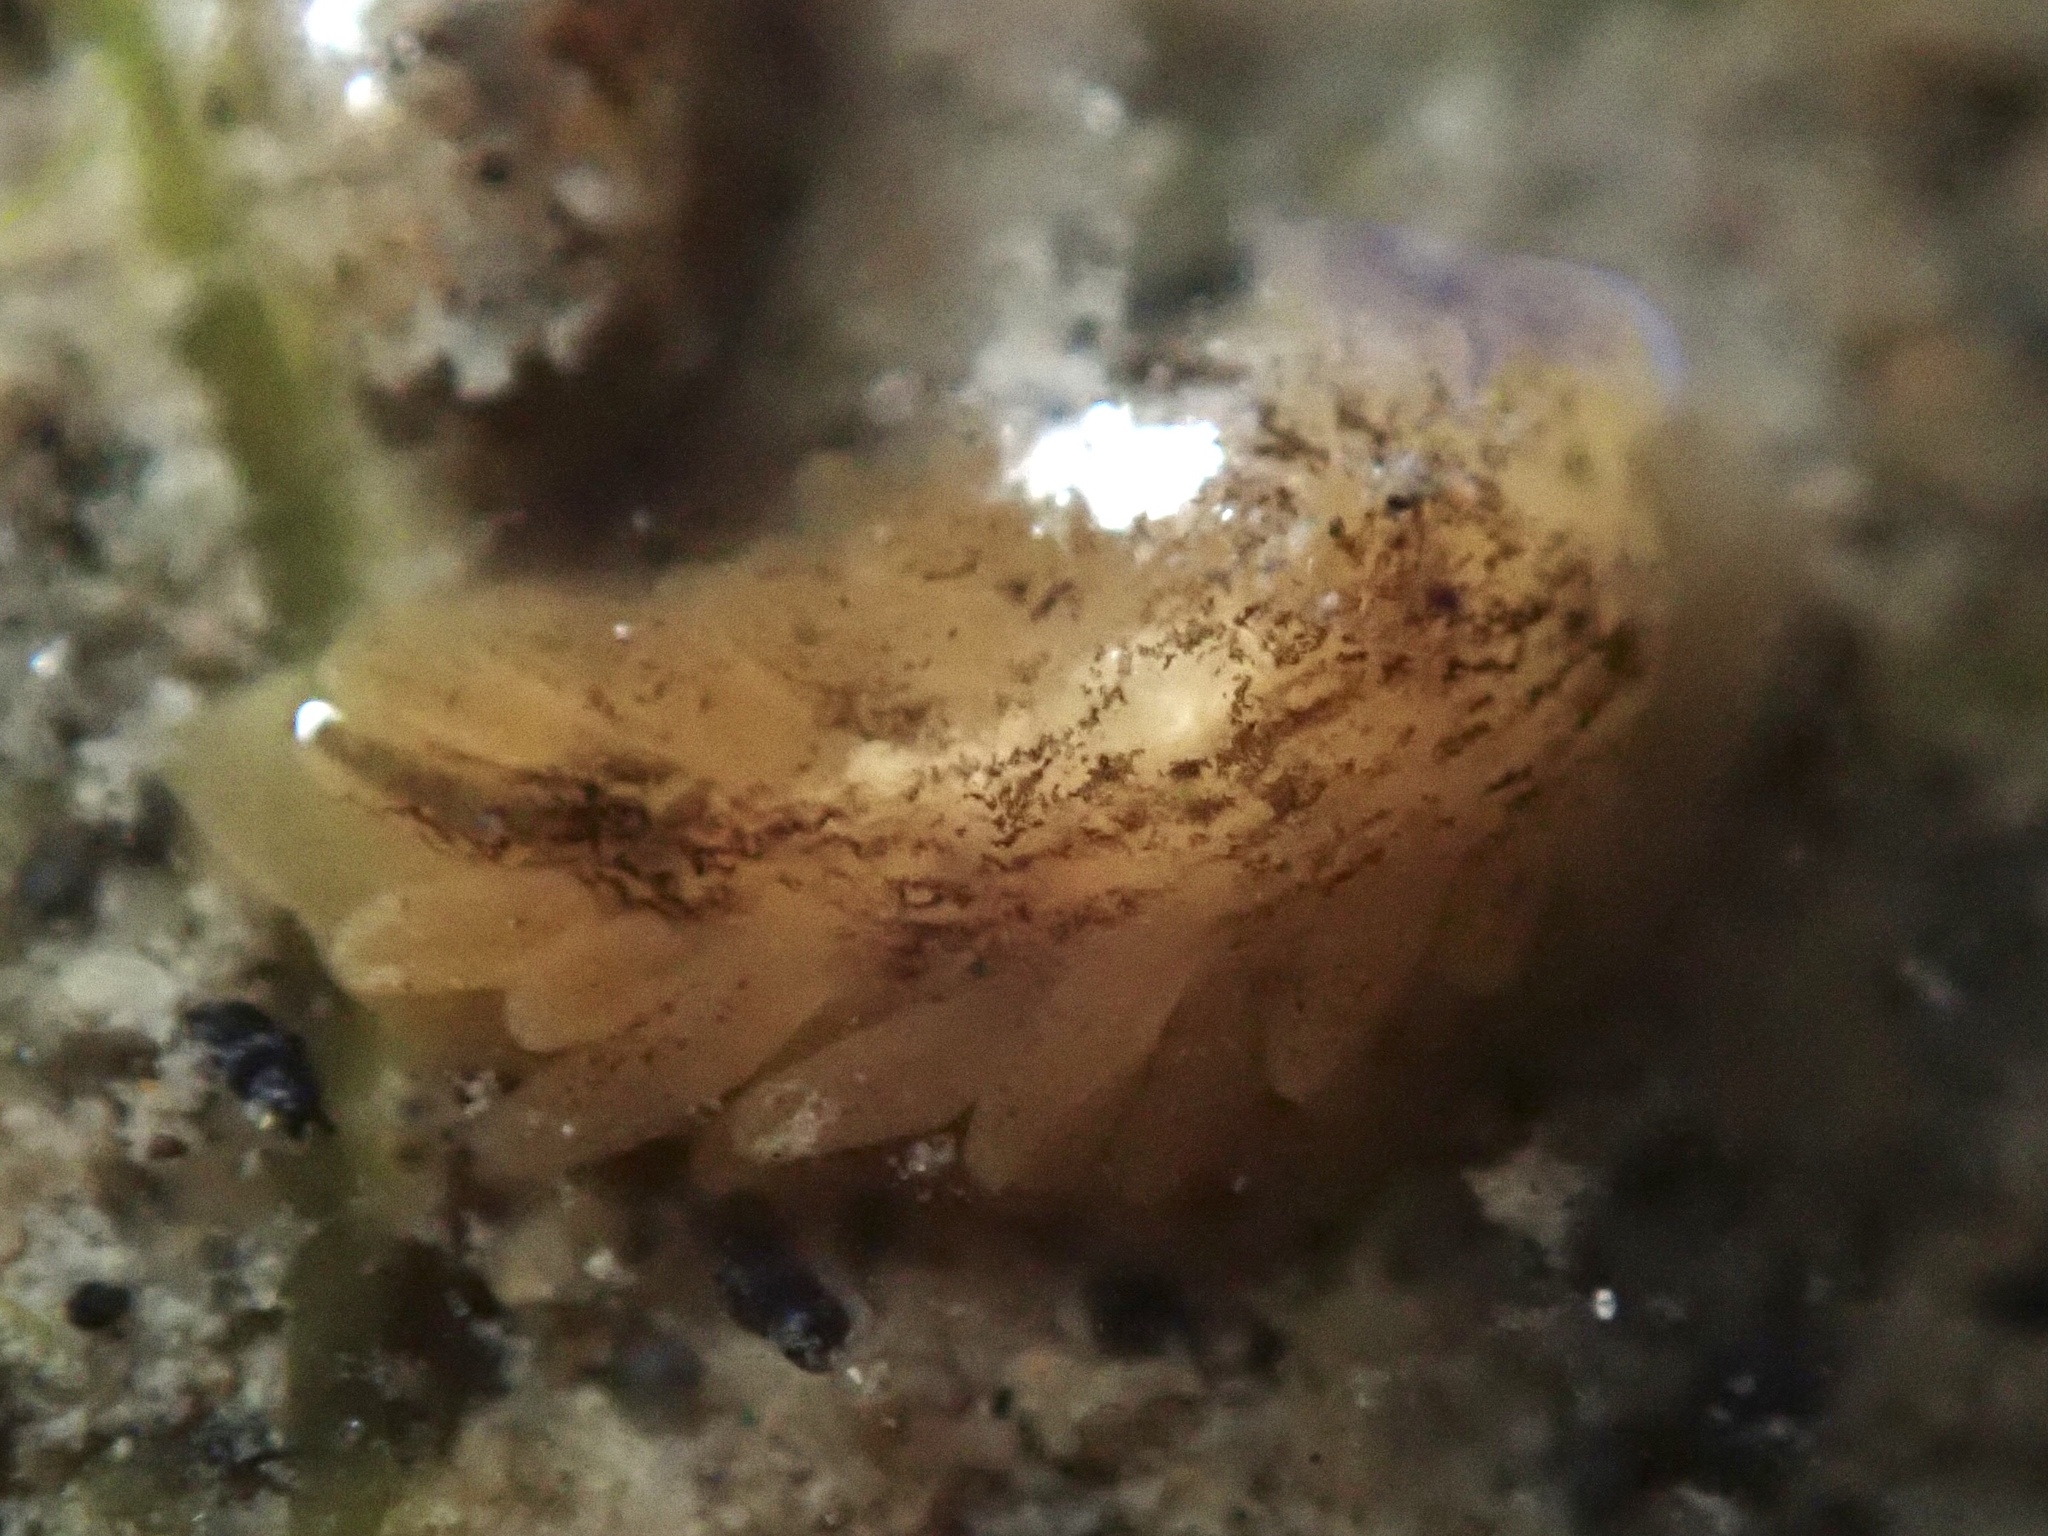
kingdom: Animalia
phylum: Mollusca
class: Gastropoda
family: Limapontiidae
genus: Alderia
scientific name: Alderia modesta
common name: Modest alderia
